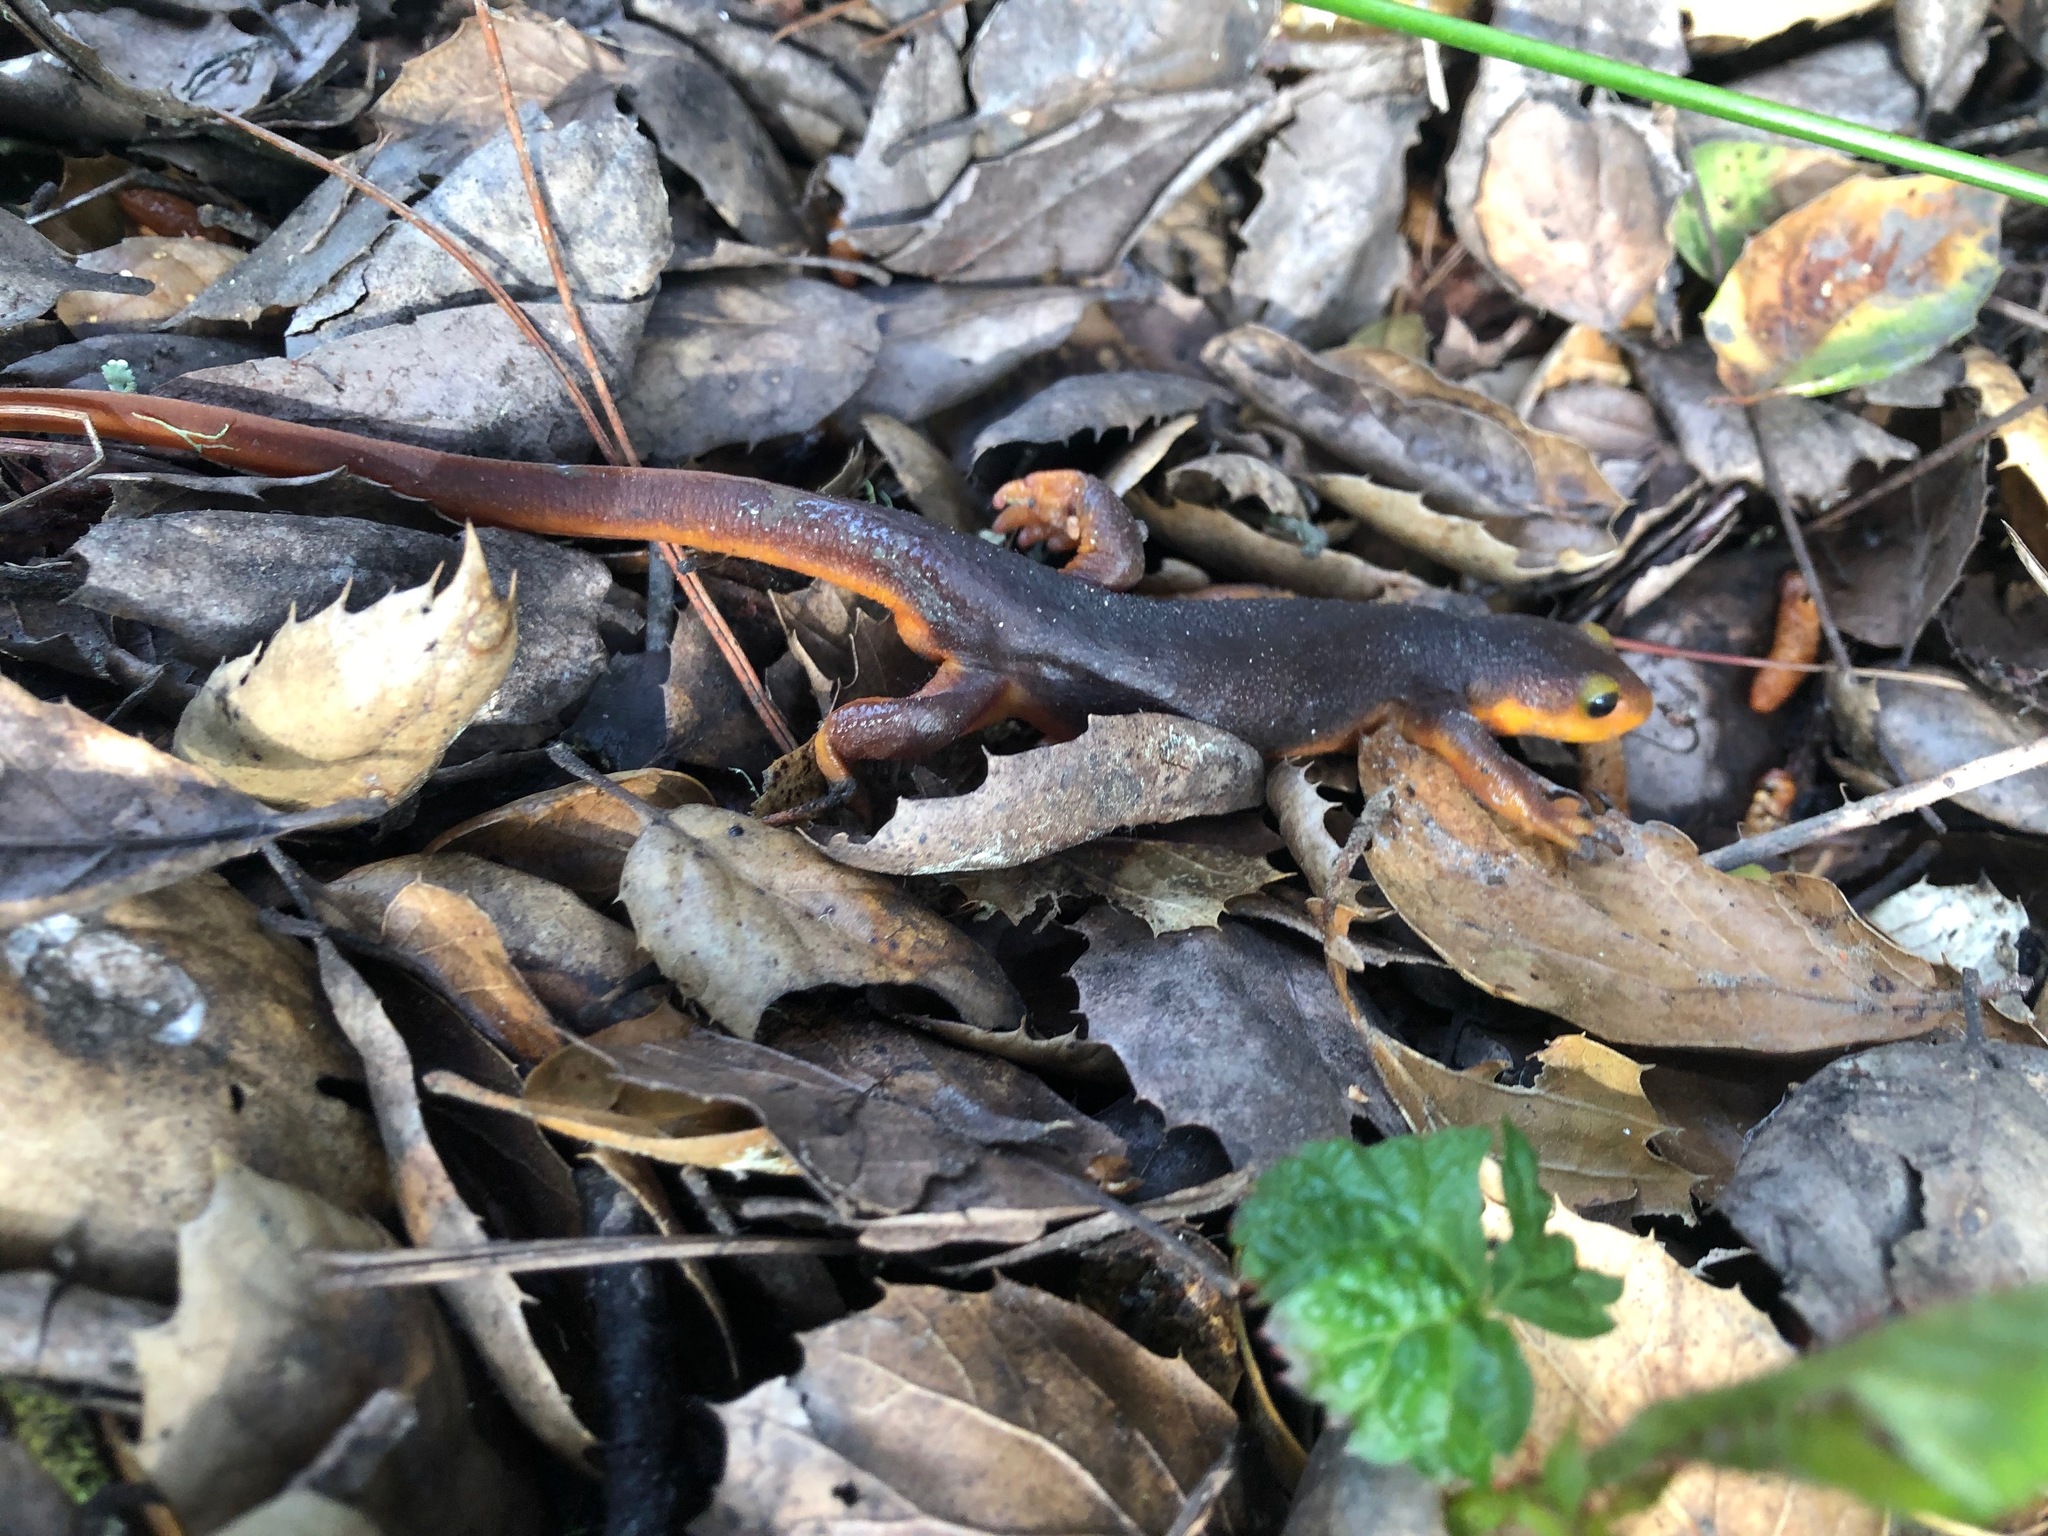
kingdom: Animalia
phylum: Chordata
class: Amphibia
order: Caudata
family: Salamandridae
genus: Taricha
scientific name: Taricha torosa
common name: California newt
